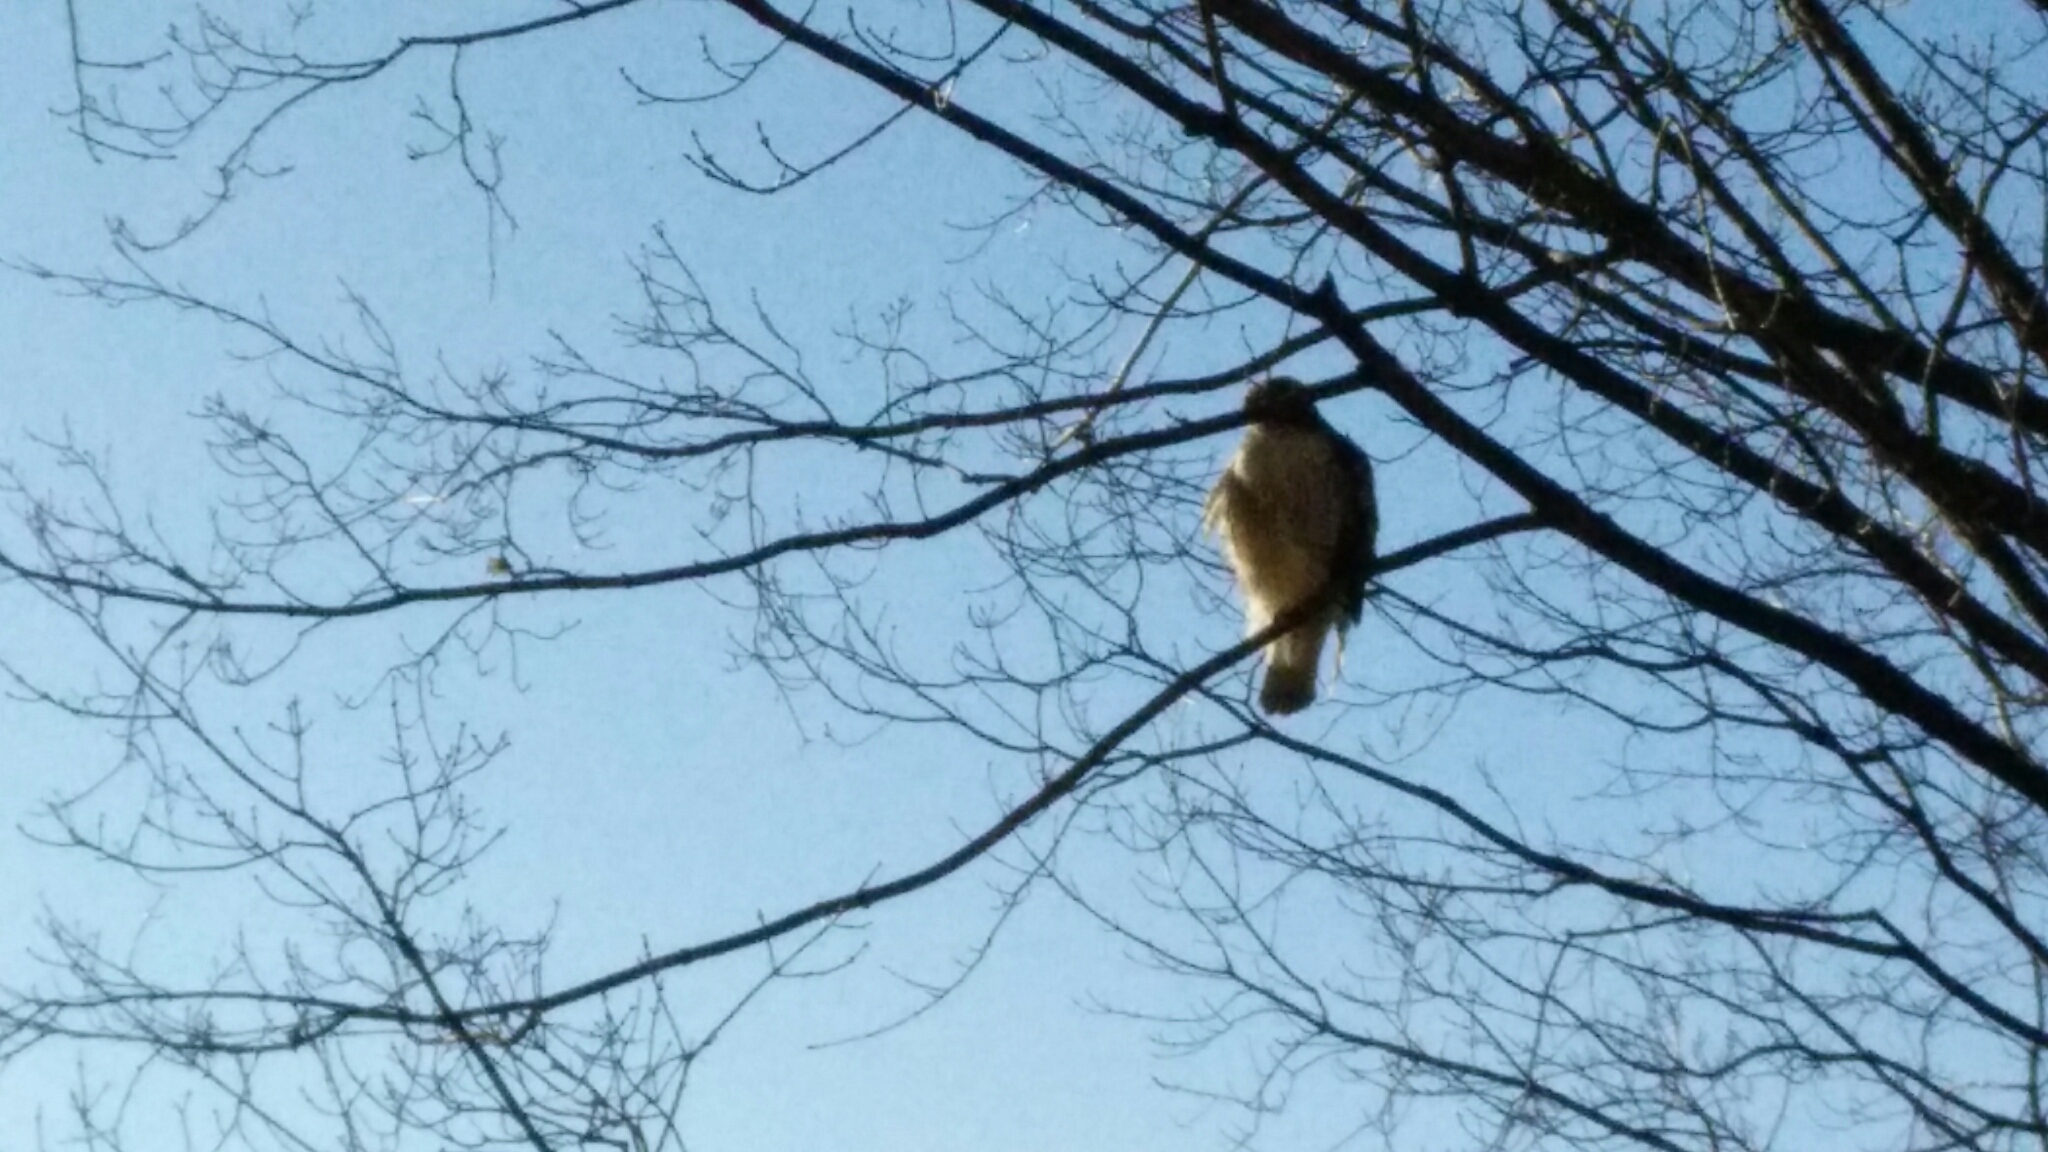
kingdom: Animalia
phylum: Chordata
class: Aves
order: Accipitriformes
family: Accipitridae
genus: Buteo
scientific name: Buteo jamaicensis
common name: Red-tailed hawk
